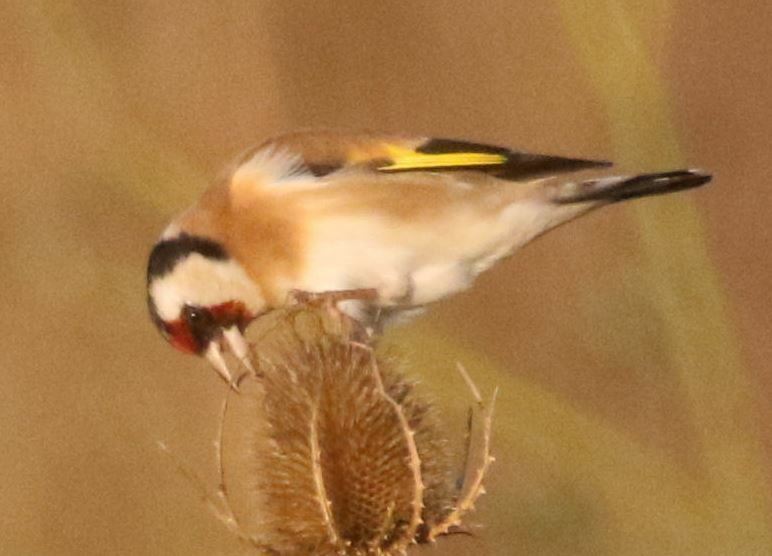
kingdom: Animalia
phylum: Chordata
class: Aves
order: Passeriformes
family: Fringillidae
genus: Carduelis
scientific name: Carduelis carduelis
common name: European goldfinch
